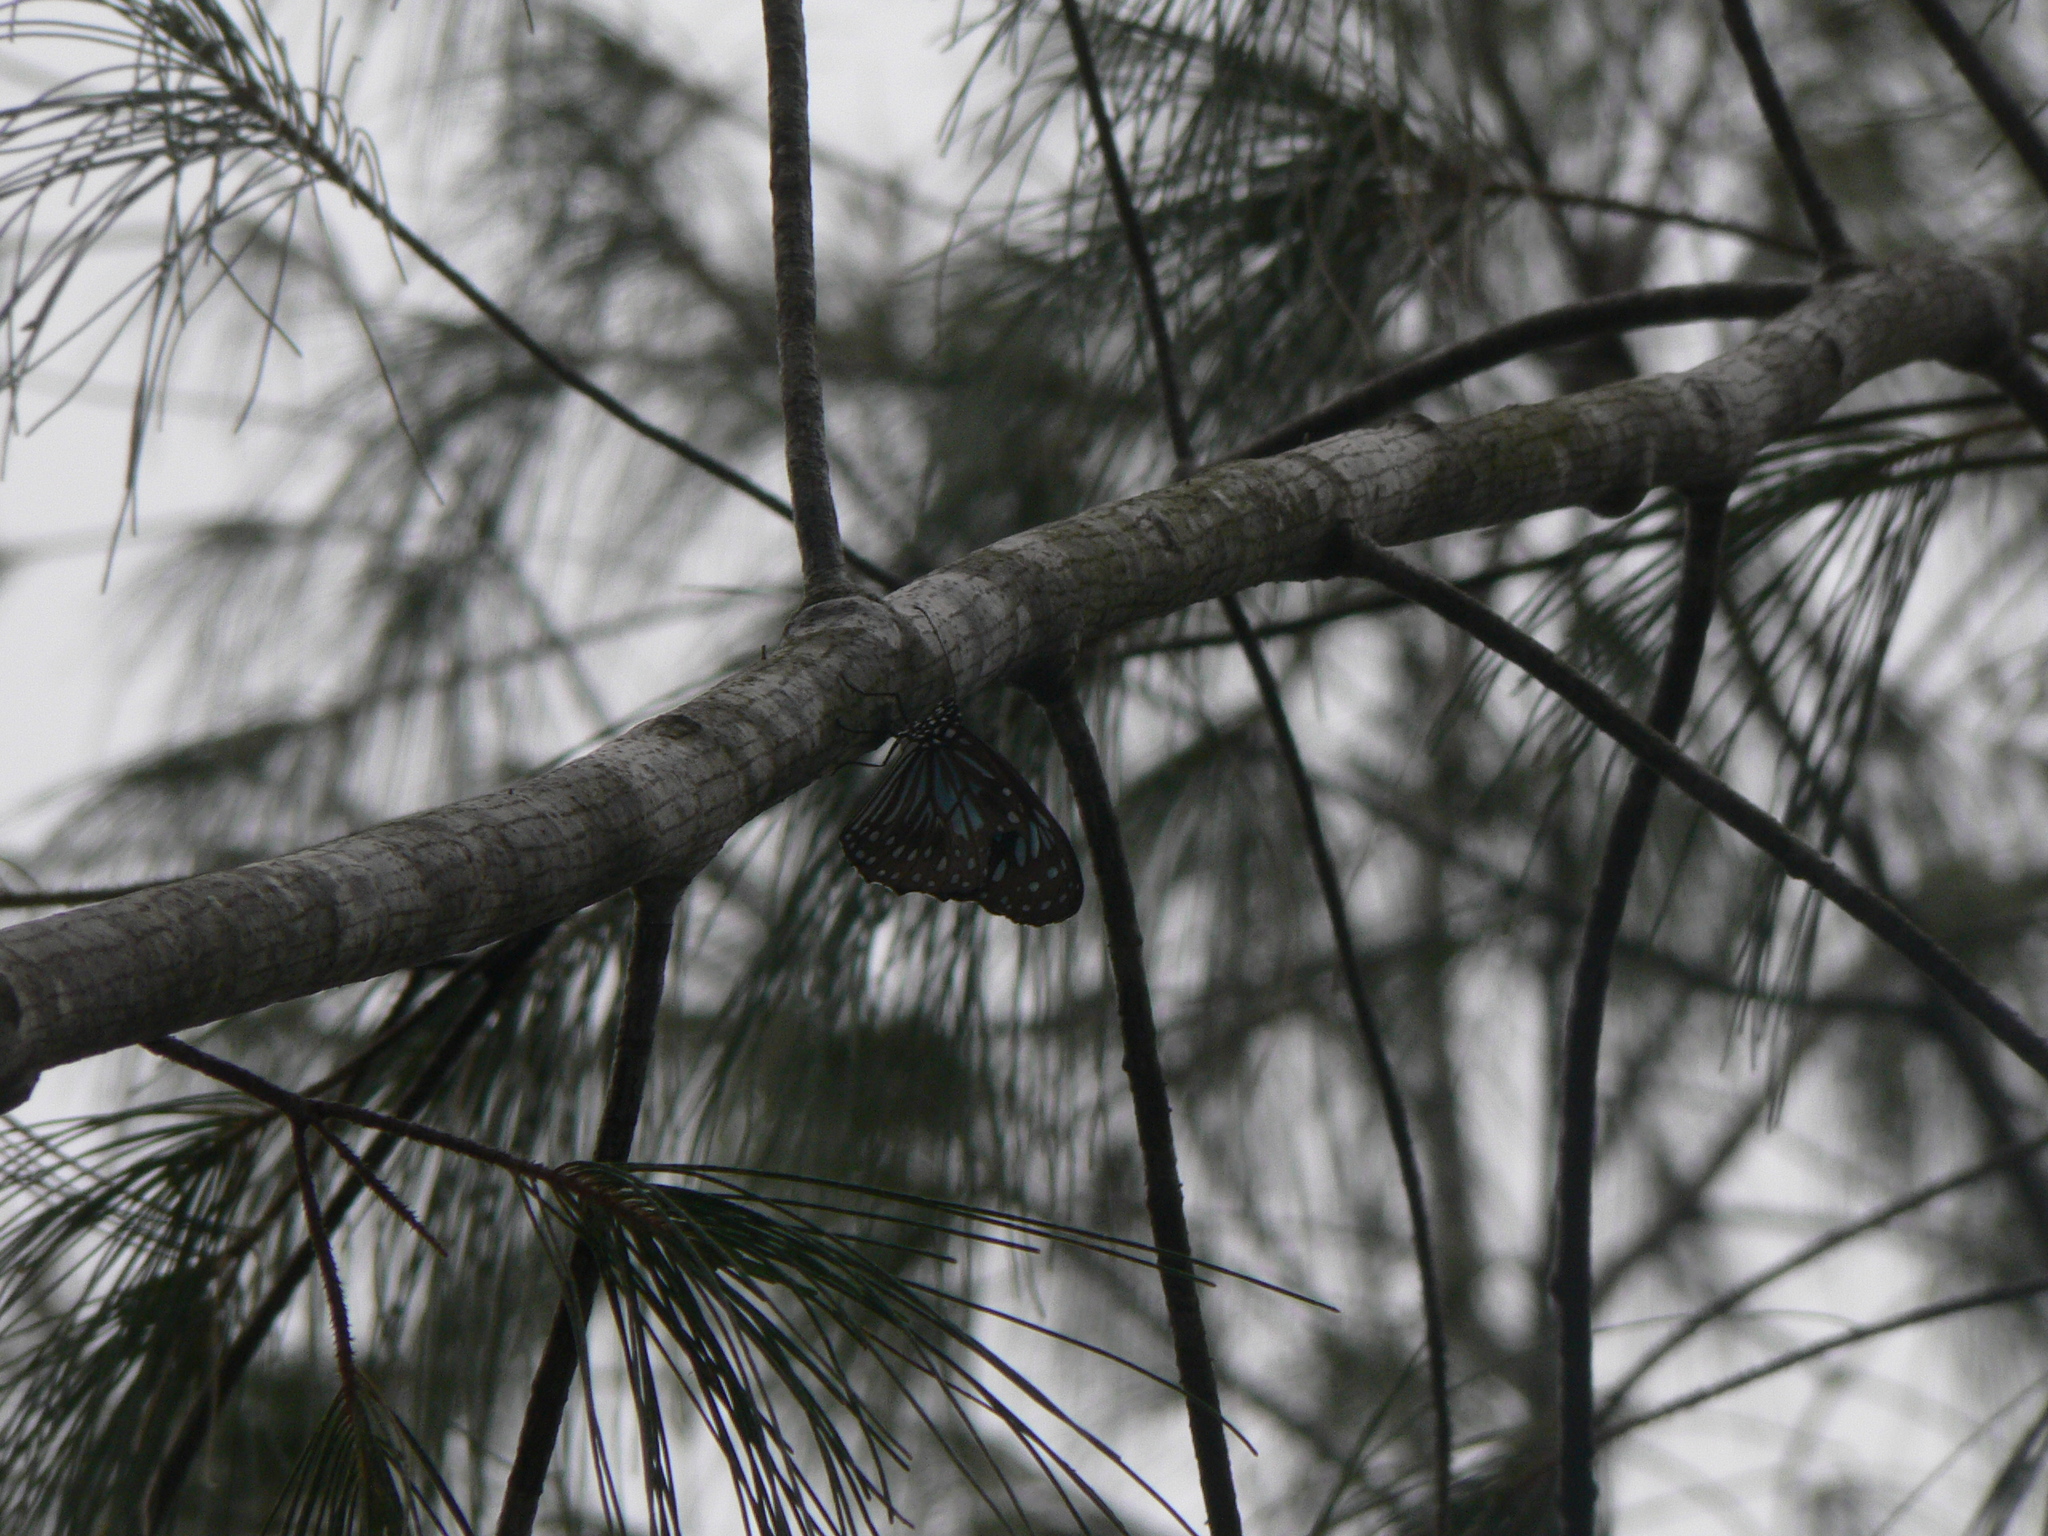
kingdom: Animalia
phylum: Arthropoda
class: Insecta
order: Lepidoptera
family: Nymphalidae
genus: Tirumala
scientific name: Tirumala hamata
